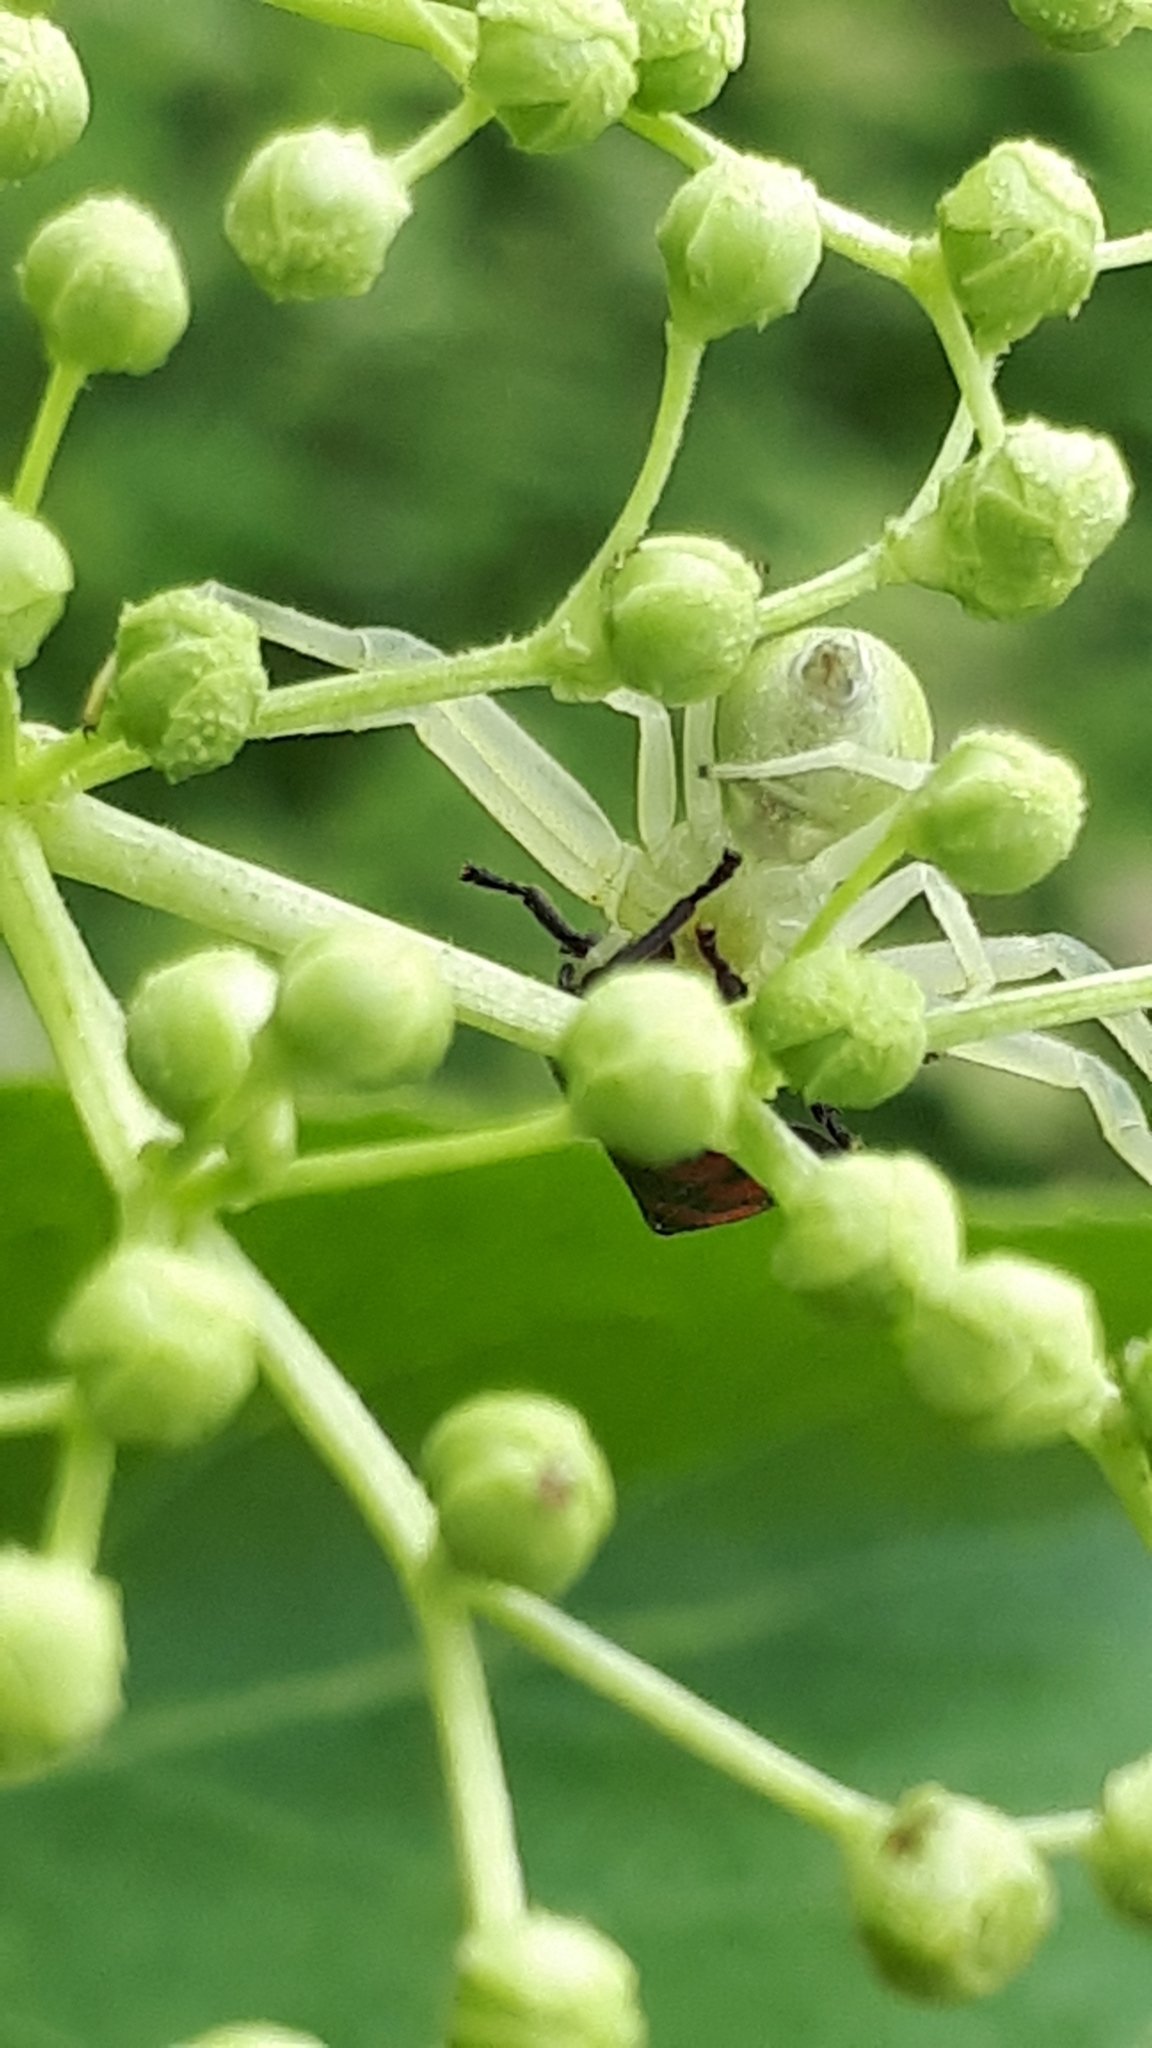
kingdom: Animalia
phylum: Arthropoda
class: Arachnida
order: Araneae
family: Thomisidae
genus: Misumena
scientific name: Misumena vatia
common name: Goldenrod crab spider
